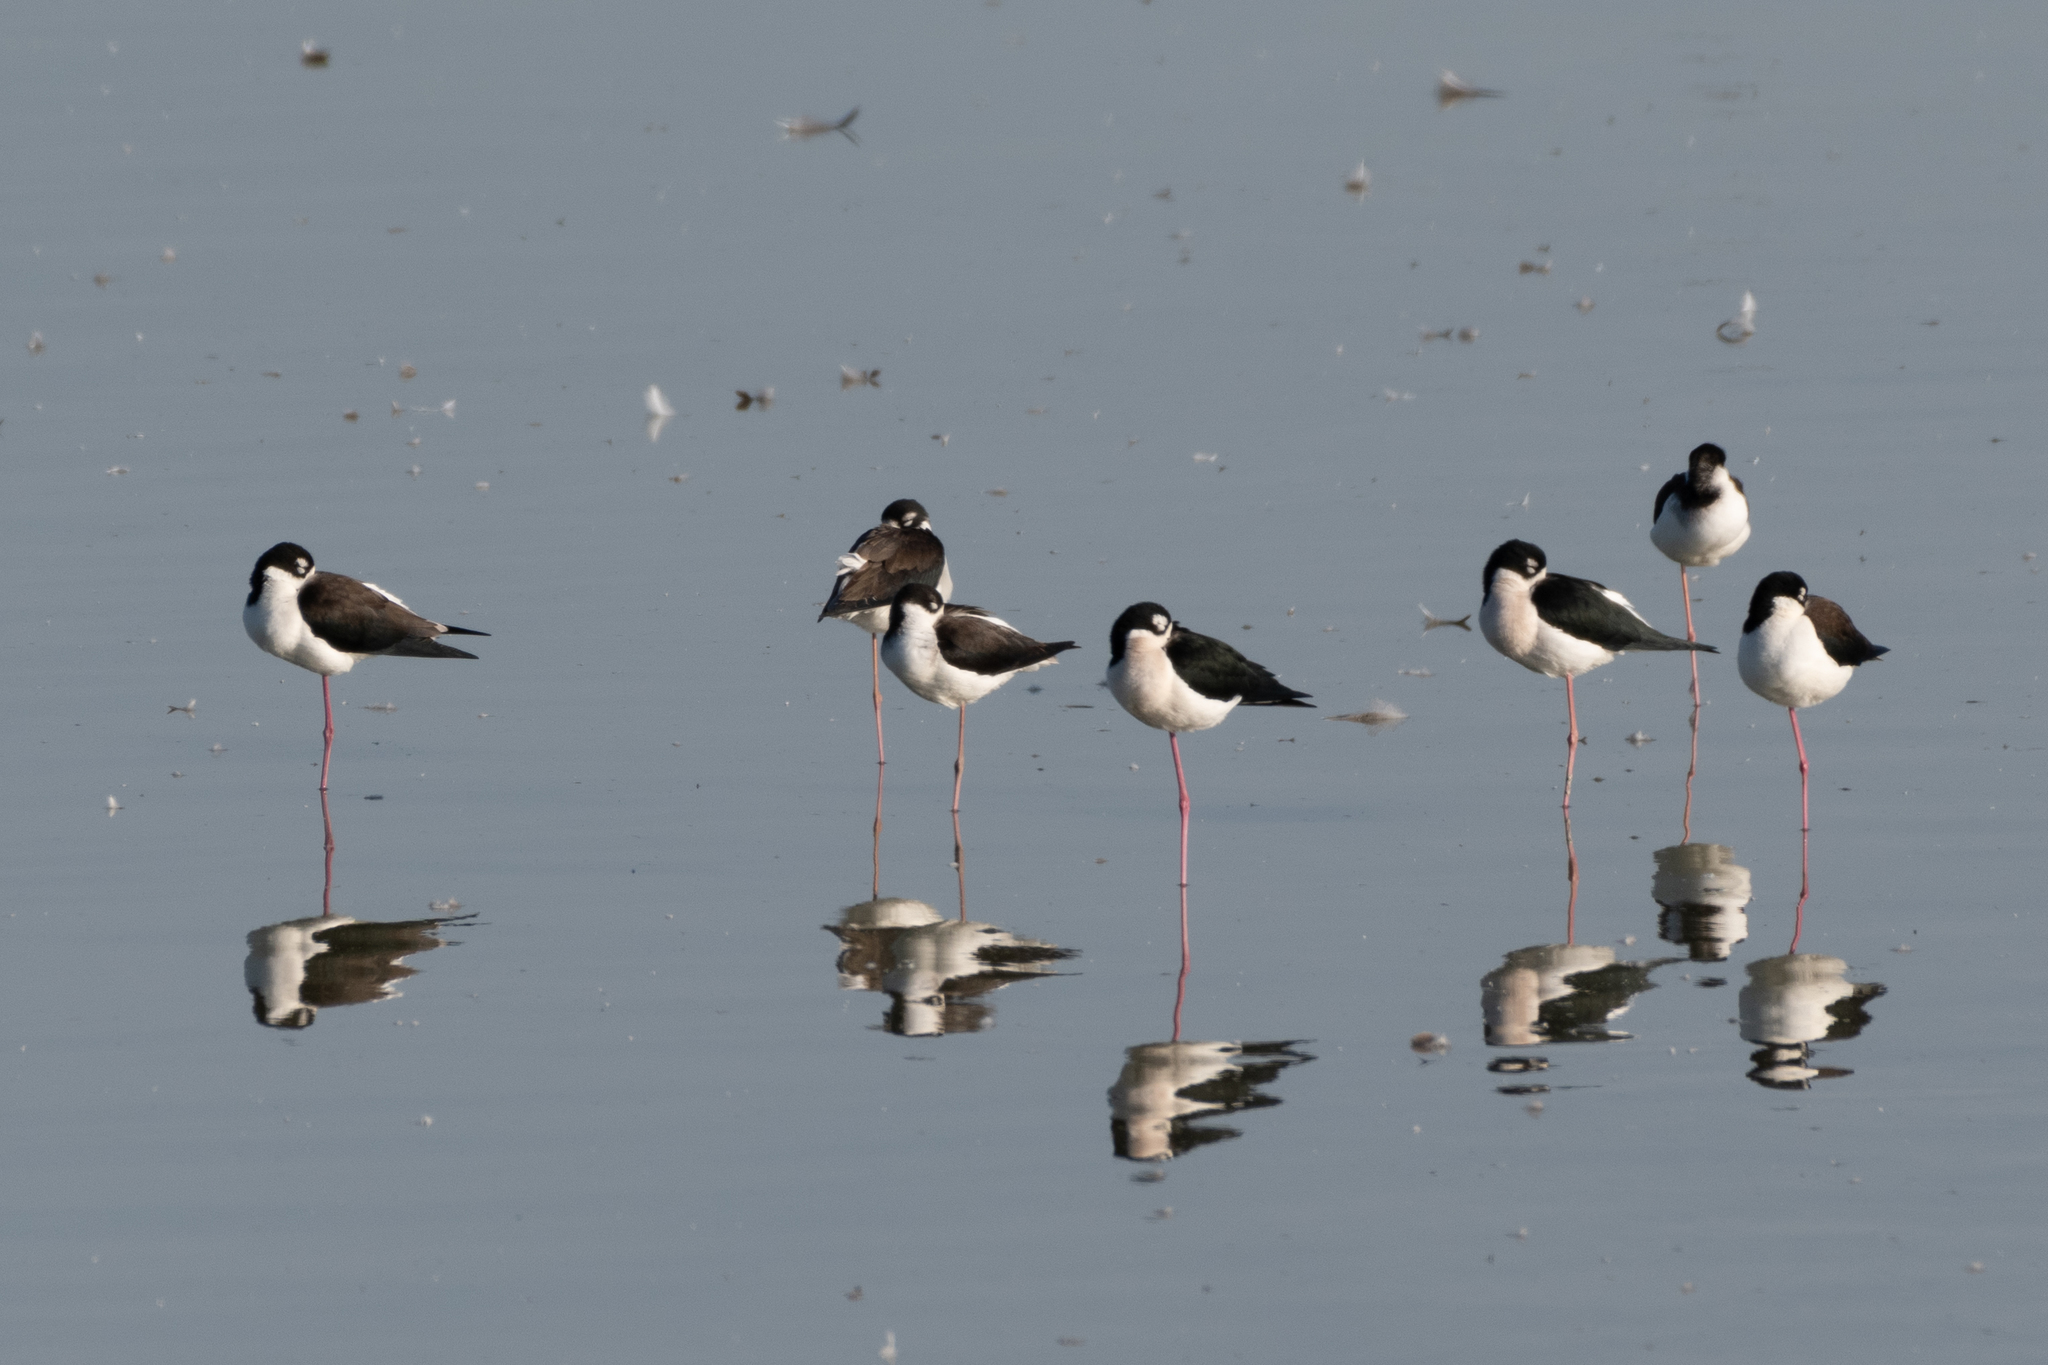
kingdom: Animalia
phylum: Chordata
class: Aves
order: Charadriiformes
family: Recurvirostridae
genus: Himantopus
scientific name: Himantopus mexicanus
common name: Black-necked stilt
